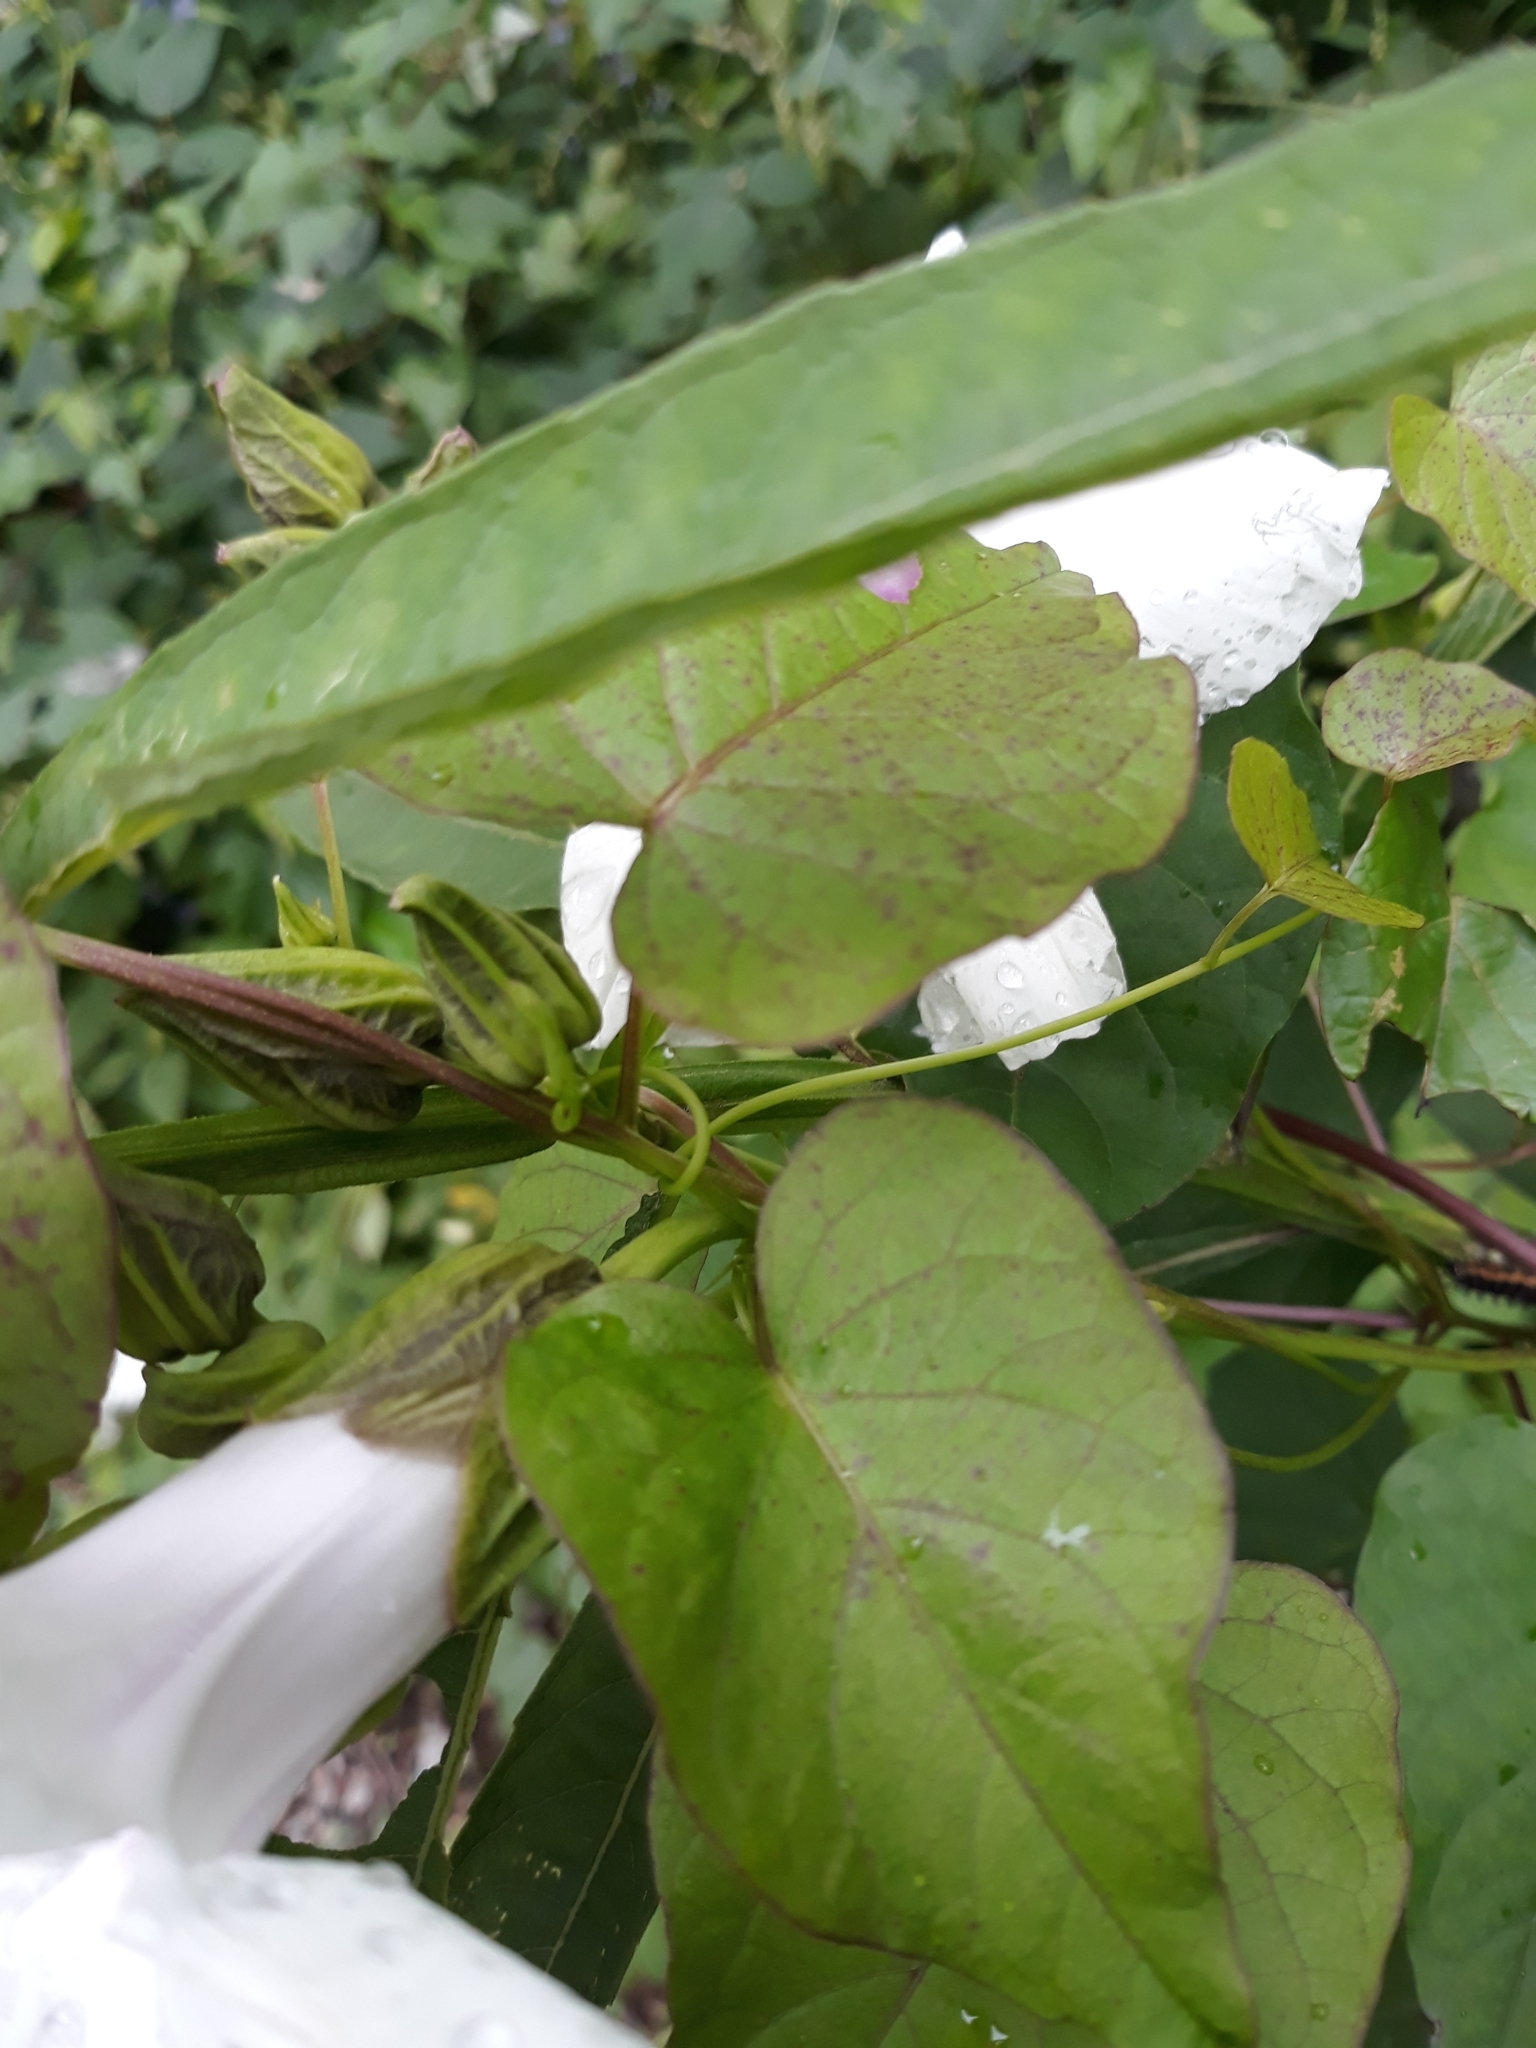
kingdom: Plantae
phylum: Tracheophyta
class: Magnoliopsida
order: Solanales
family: Convolvulaceae
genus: Ipomoea
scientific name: Ipomoea pandurata
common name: Man-of-the-earth
